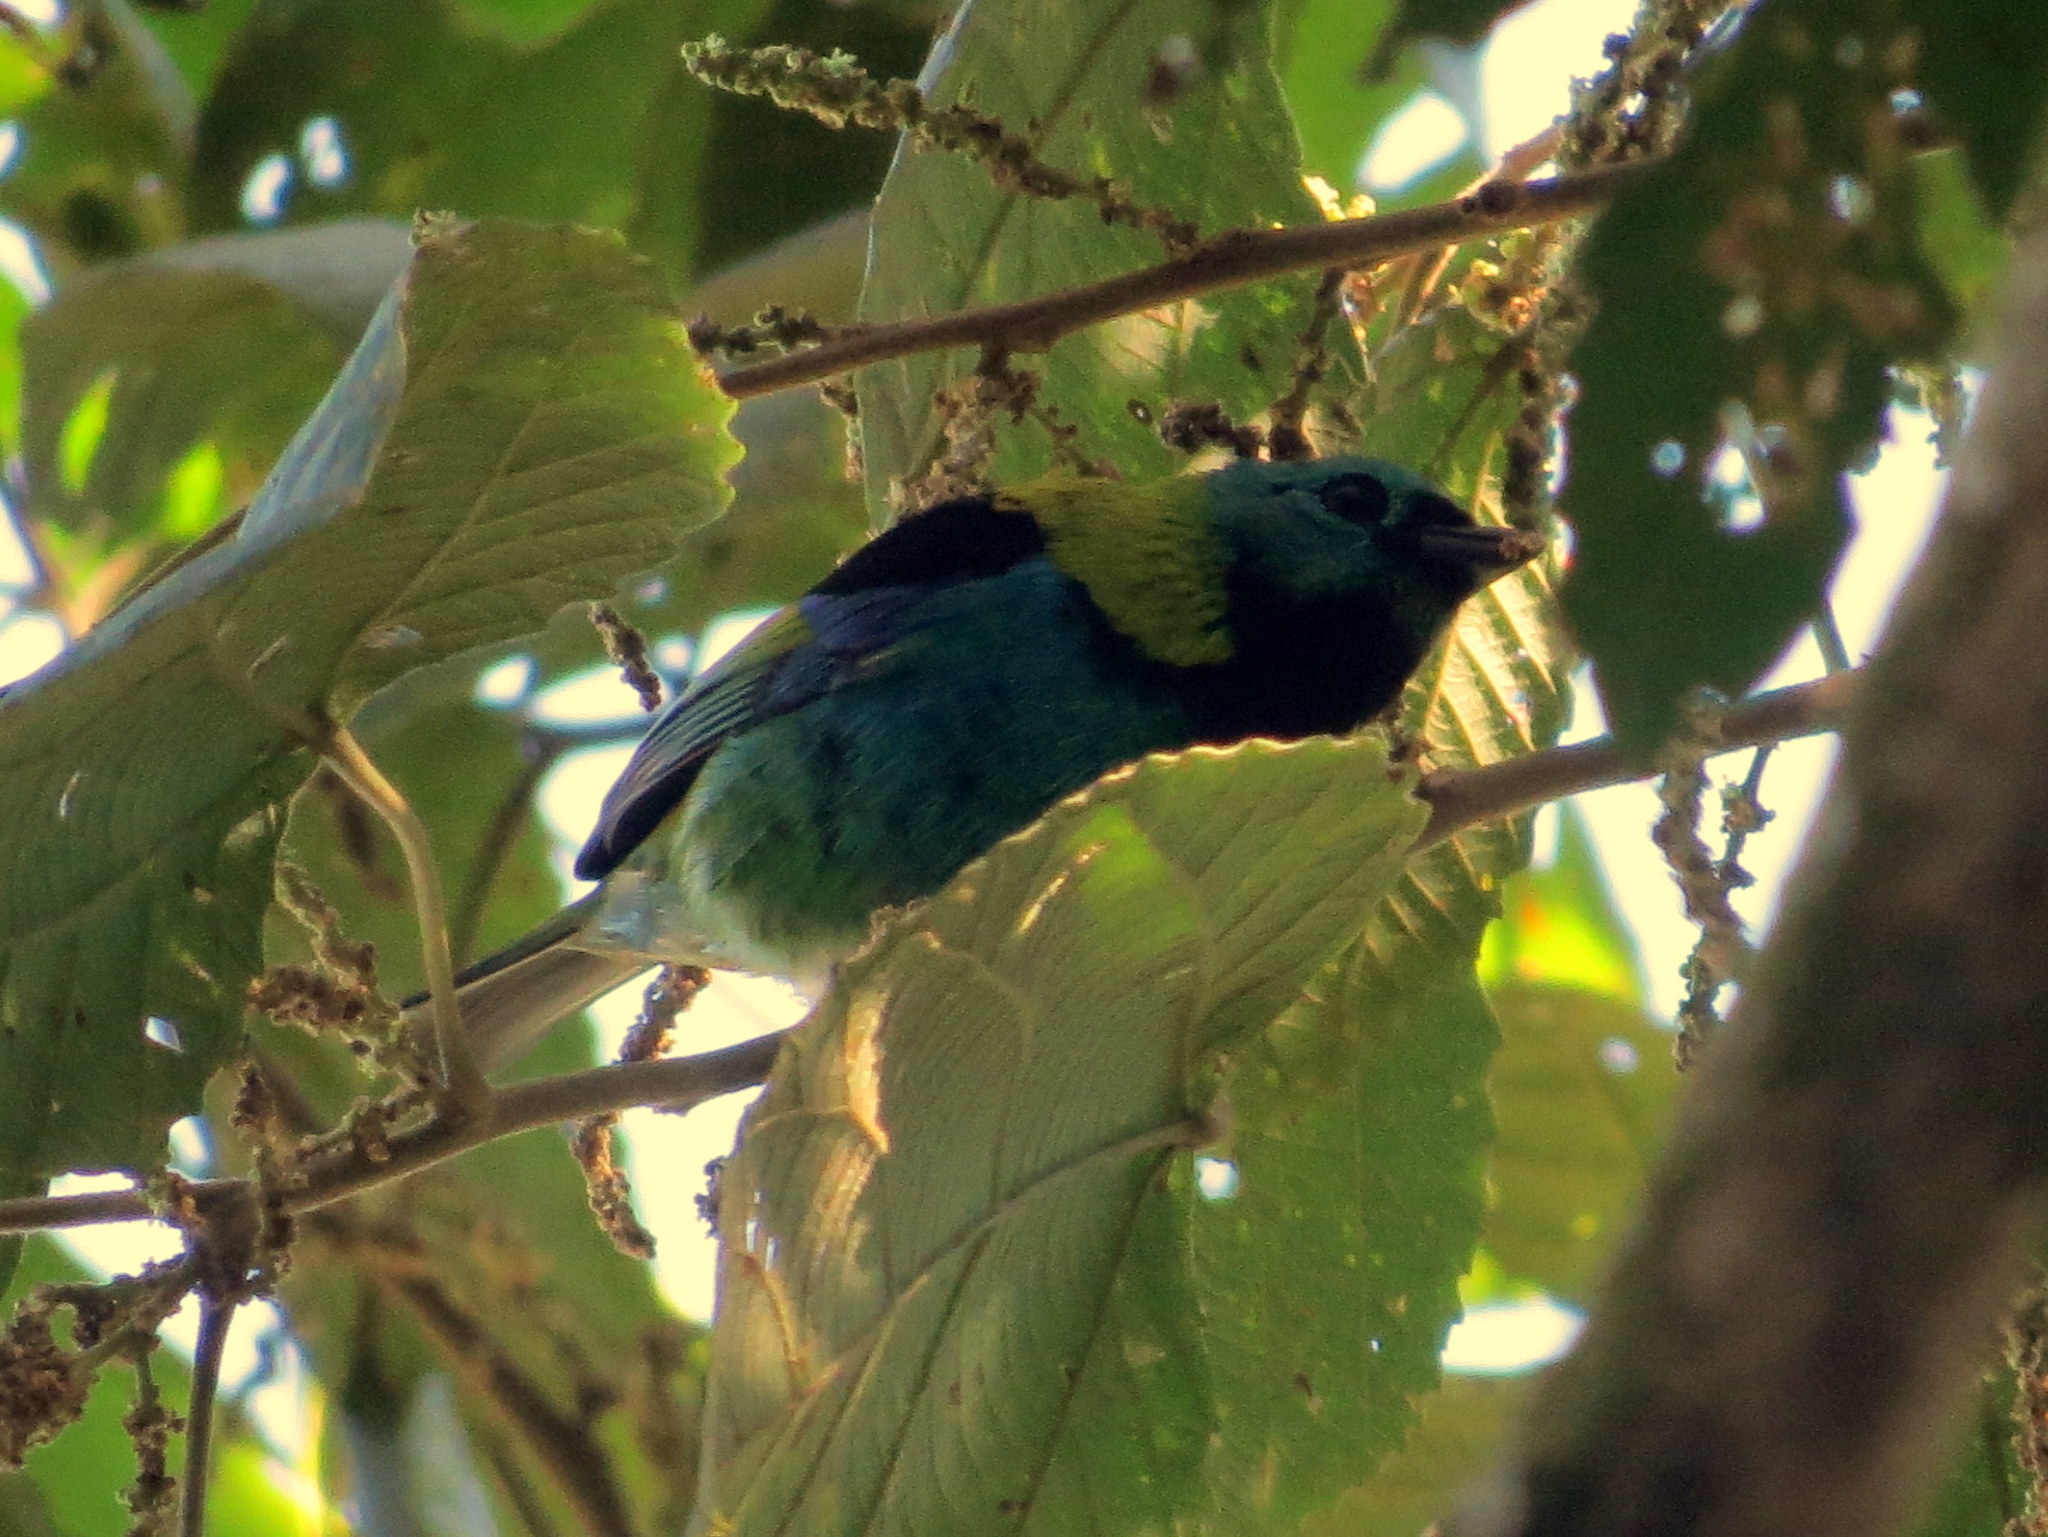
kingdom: Animalia
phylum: Chordata
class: Aves
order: Passeriformes
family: Thraupidae
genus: Tangara
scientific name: Tangara seledon
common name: Green-headed tanager
